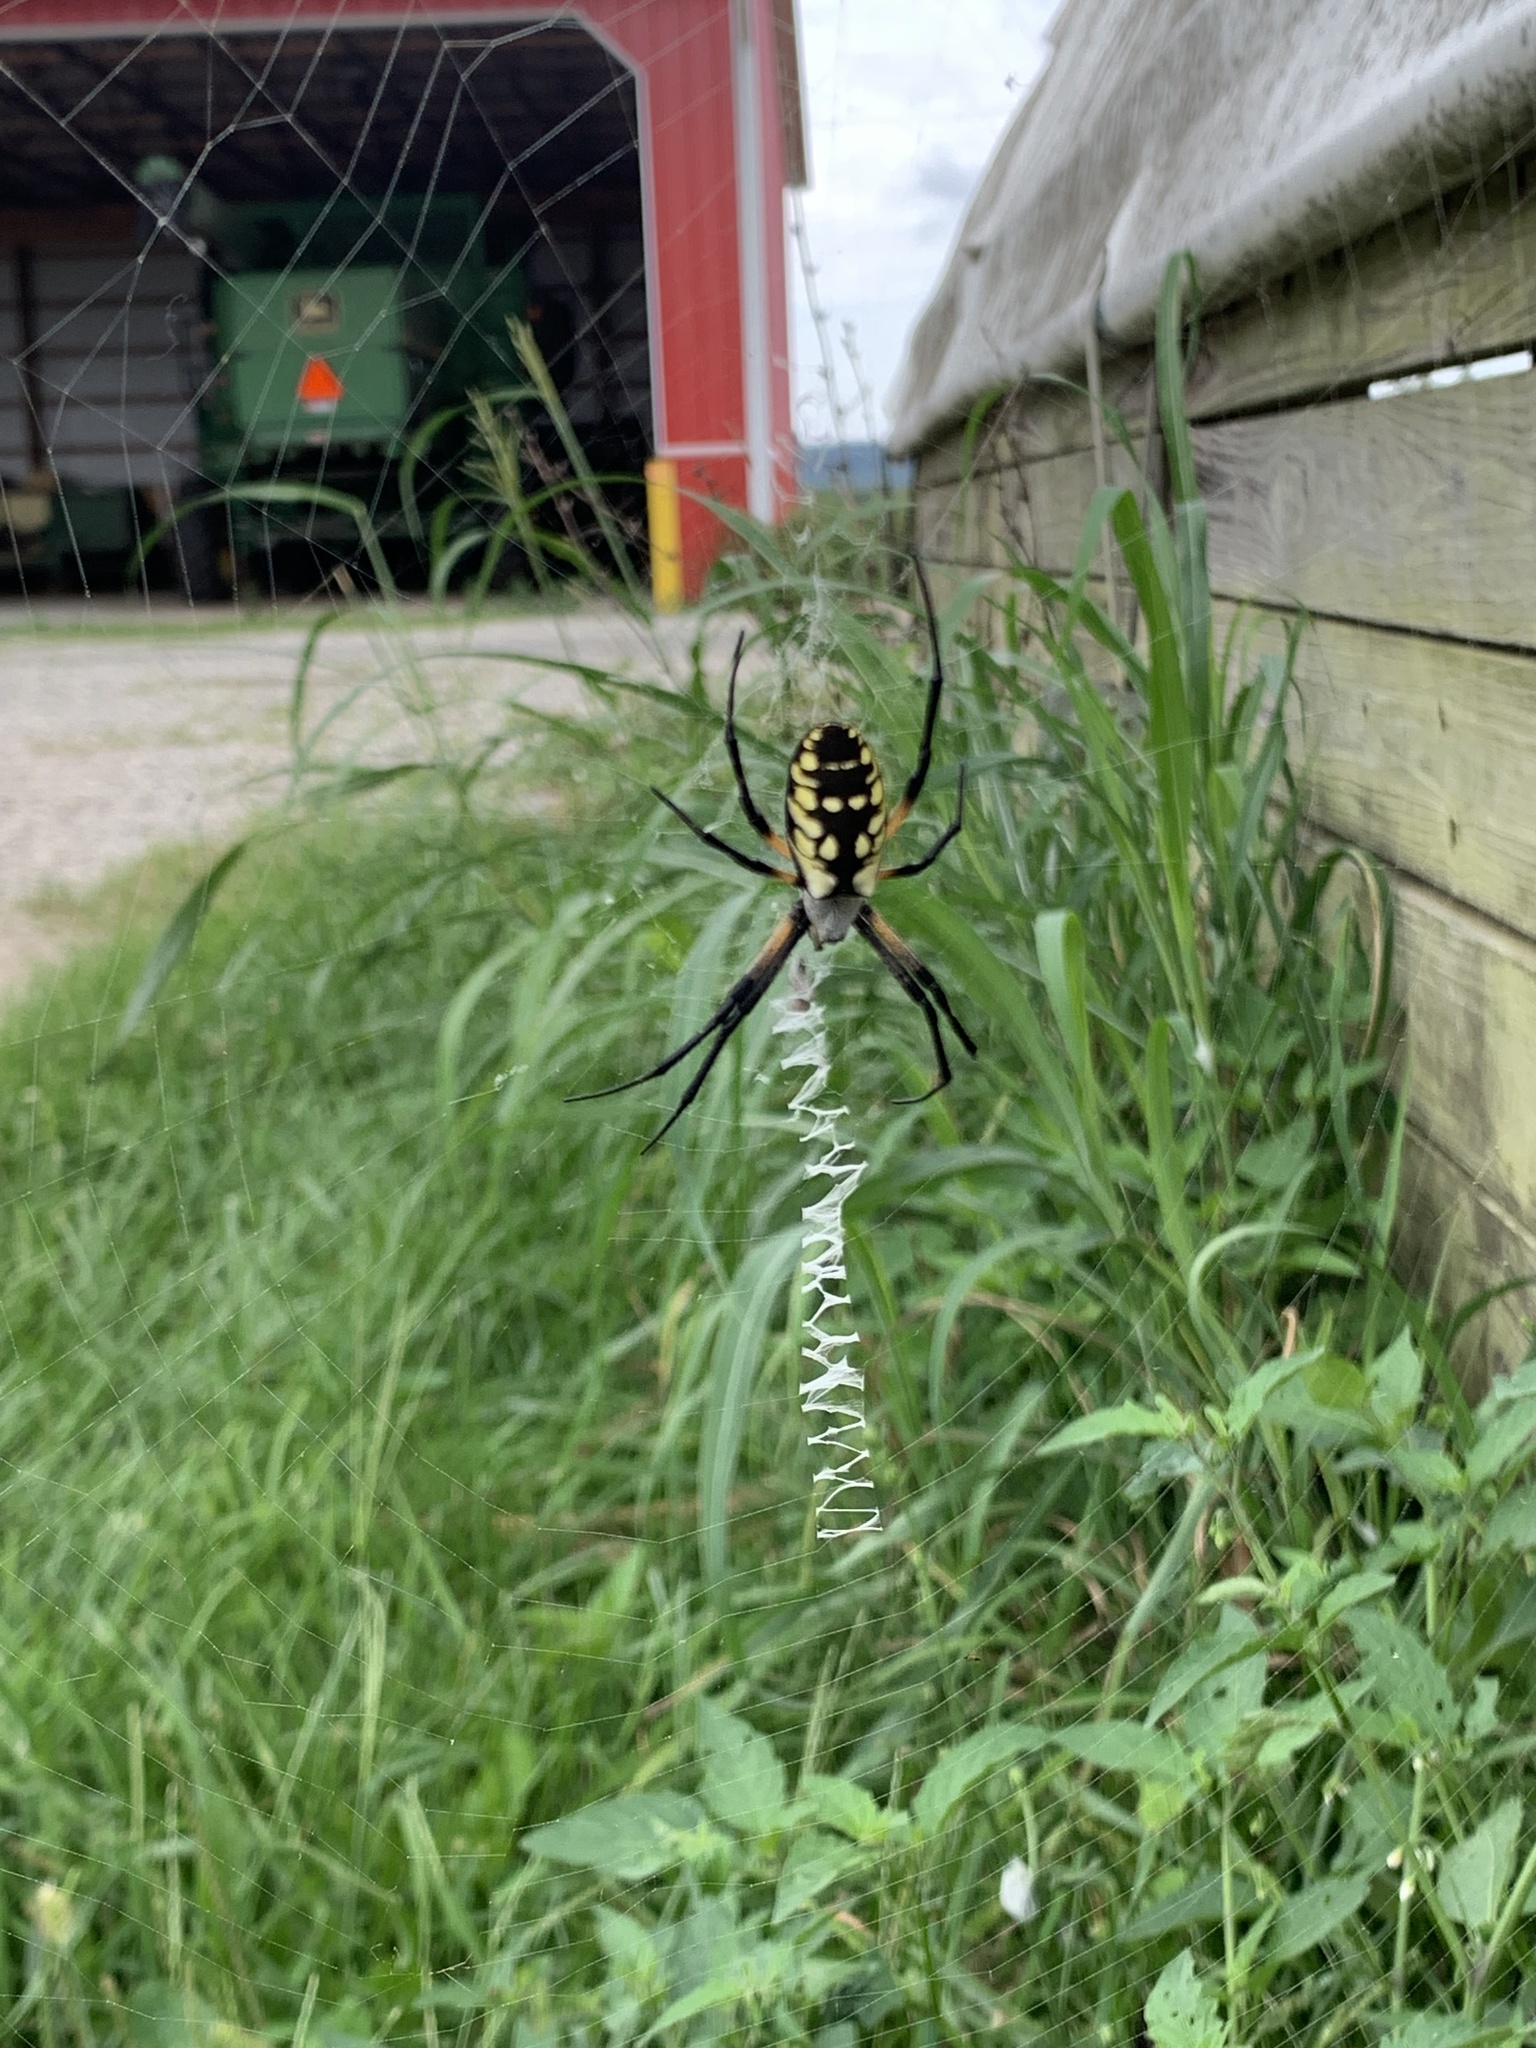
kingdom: Animalia
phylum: Arthropoda
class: Arachnida
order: Araneae
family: Araneidae
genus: Argiope
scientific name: Argiope aurantia
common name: Orb weavers
